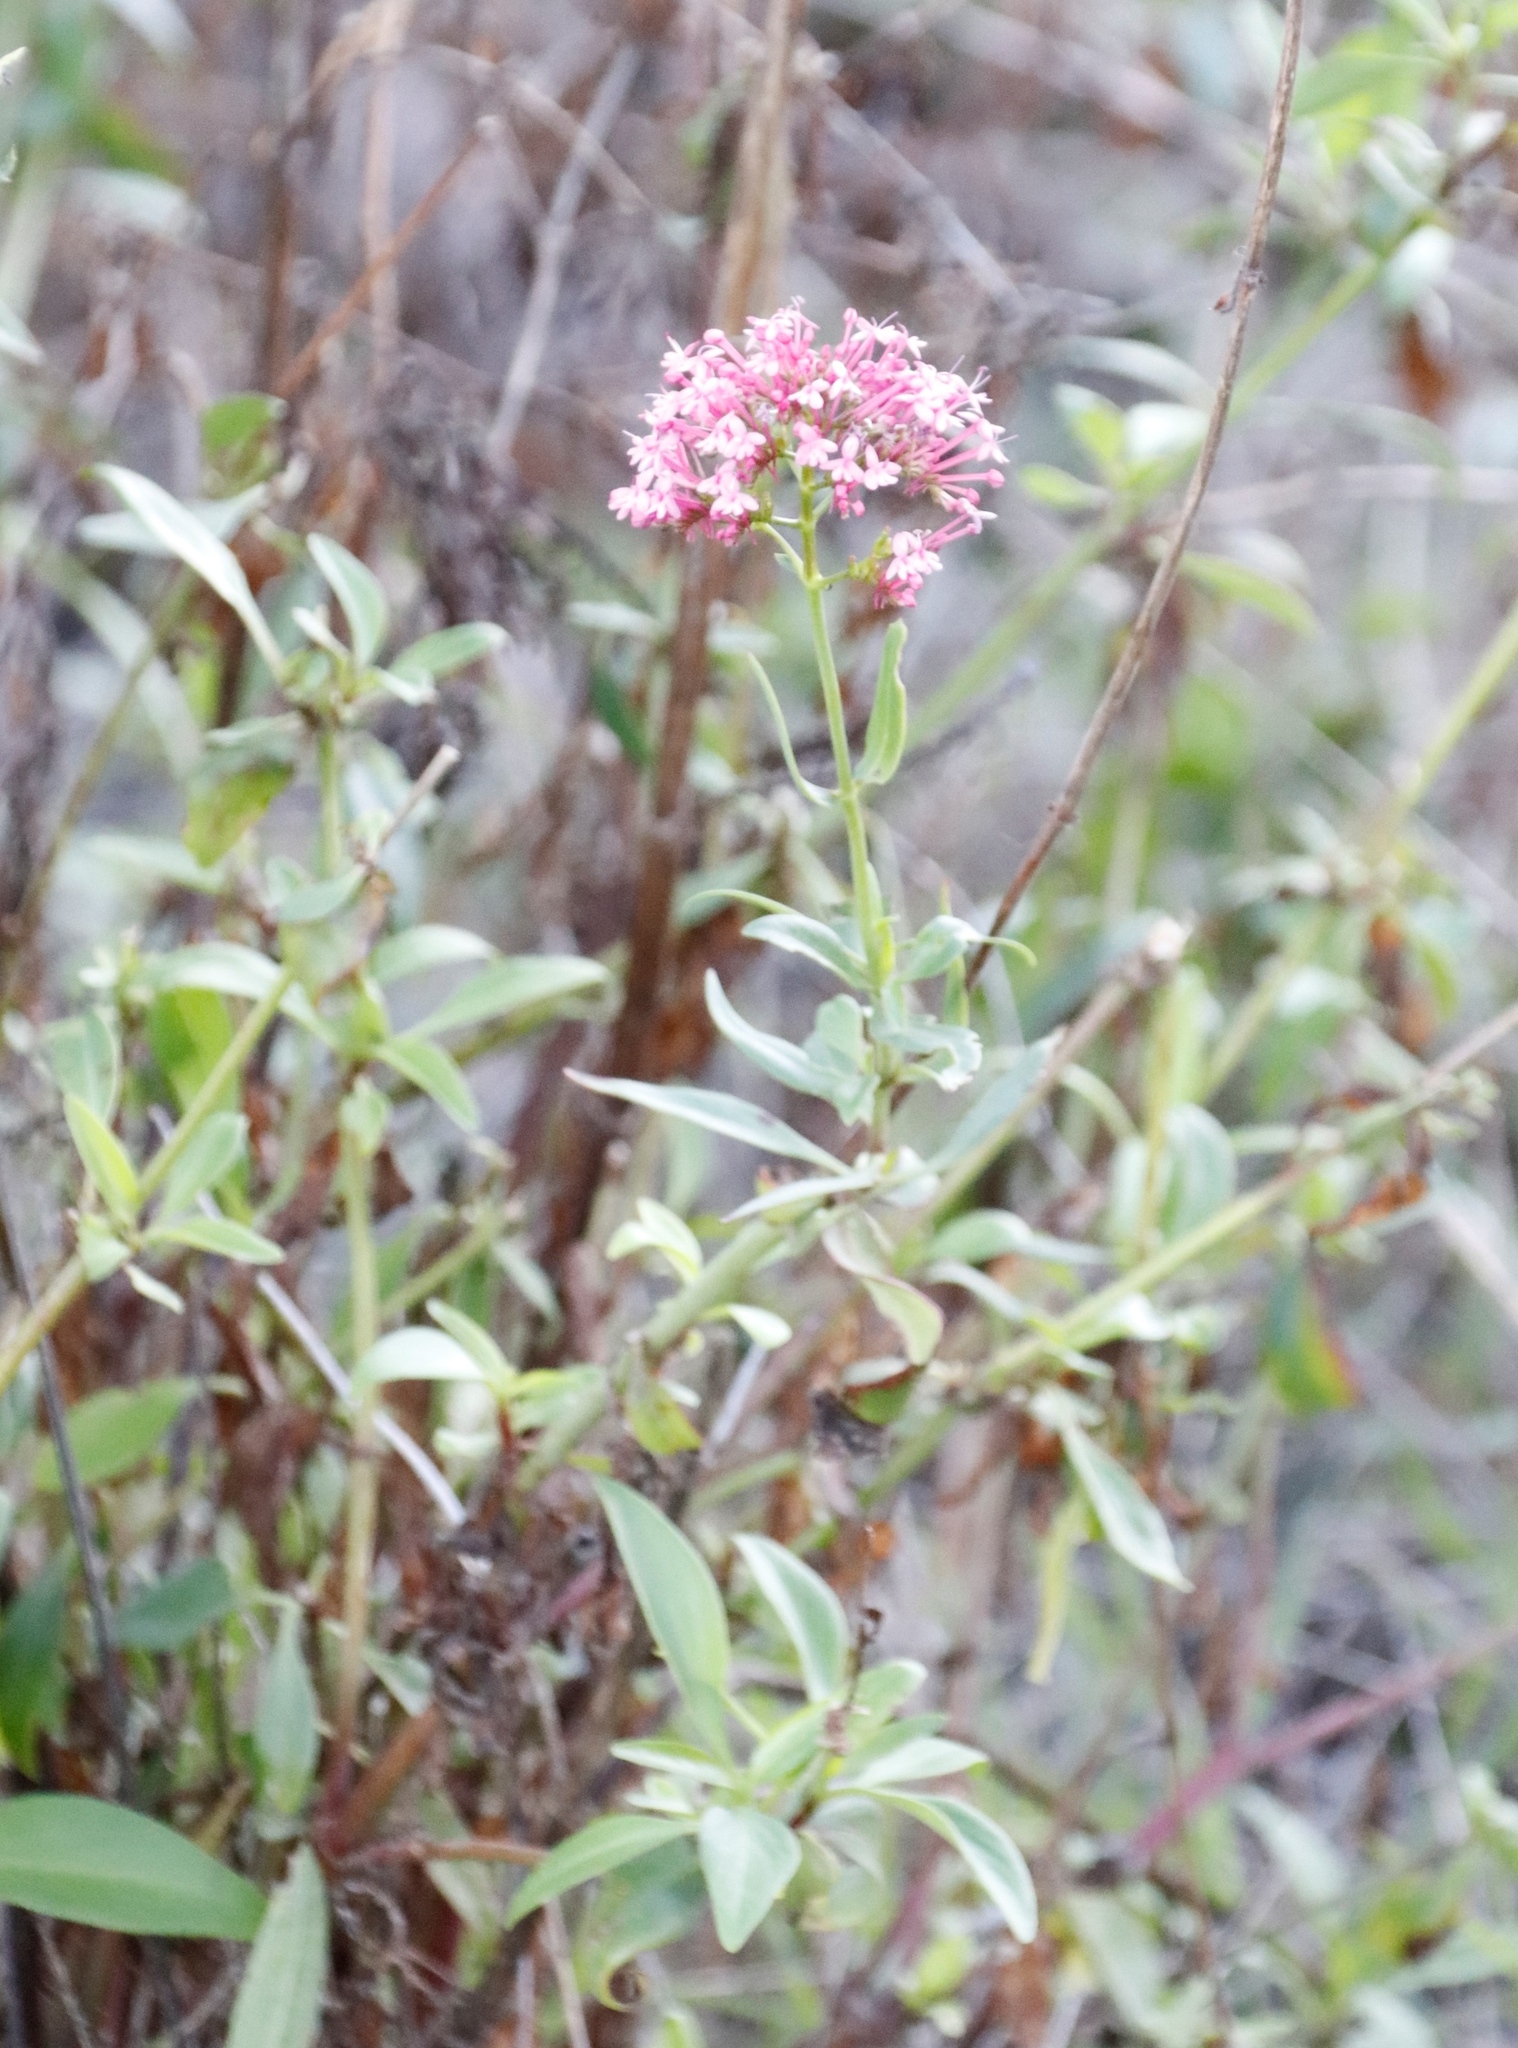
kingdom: Plantae
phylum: Tracheophyta
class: Magnoliopsida
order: Dipsacales
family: Caprifoliaceae
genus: Centranthus
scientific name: Centranthus ruber
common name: Red valerian
